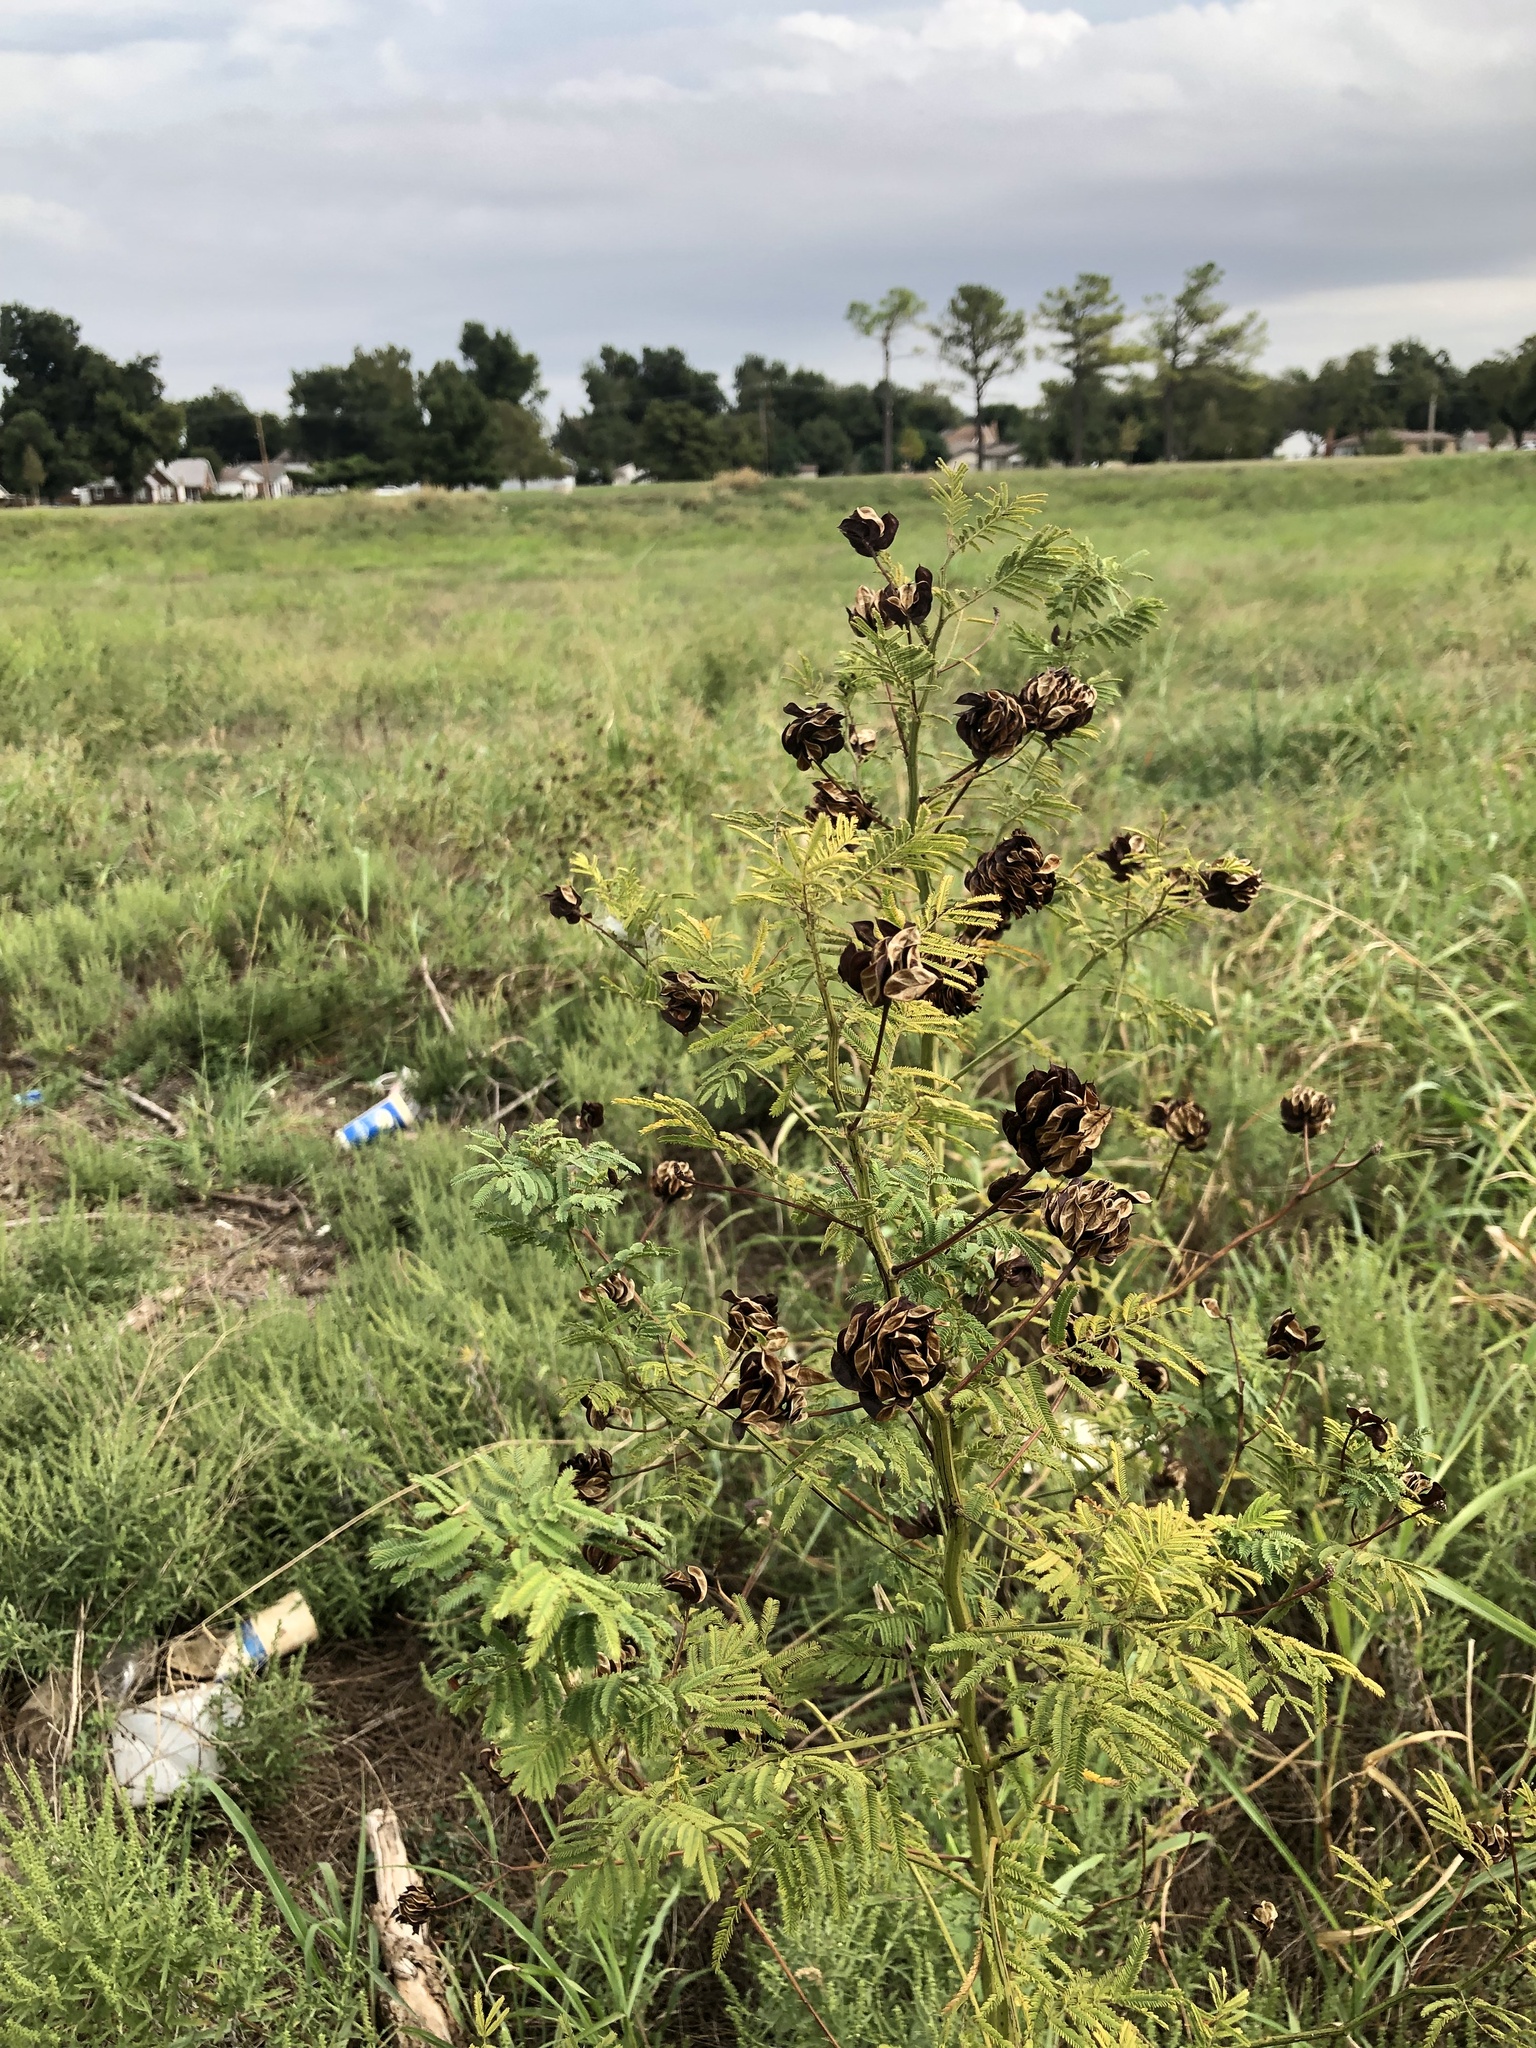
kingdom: Plantae
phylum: Tracheophyta
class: Magnoliopsida
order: Fabales
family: Fabaceae
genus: Desmanthus
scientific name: Desmanthus illinoensis
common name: Illinois bundle-flower
